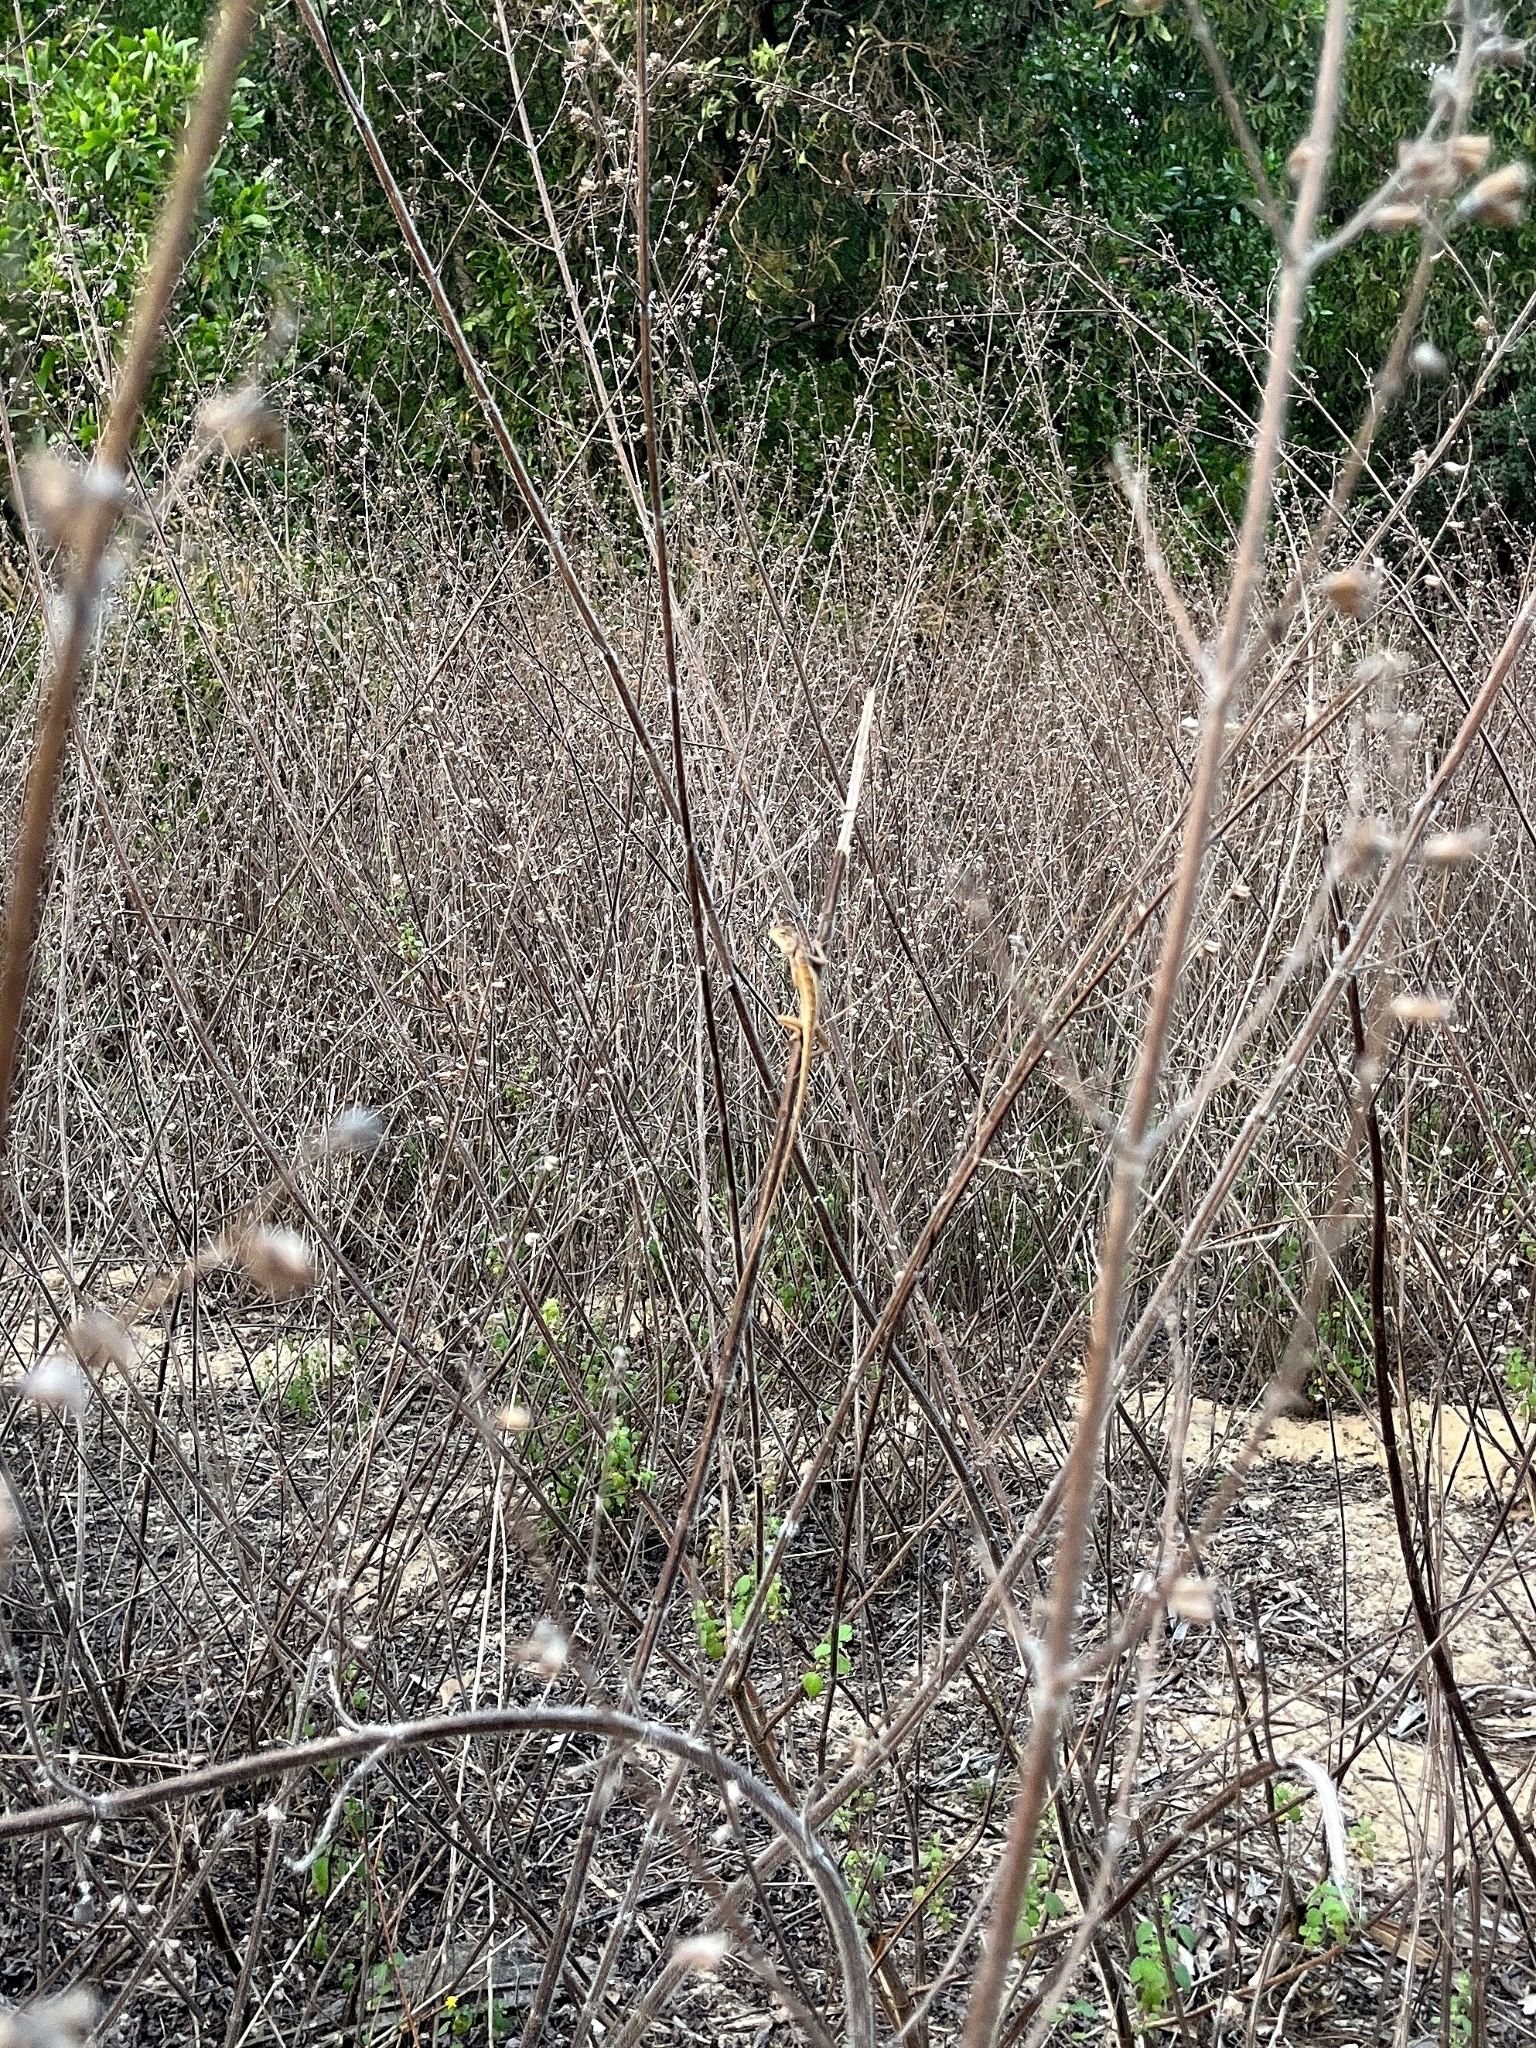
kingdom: Animalia
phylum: Chordata
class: Squamata
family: Agamidae
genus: Calotes
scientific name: Calotes versicolor
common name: Oriental garden lizard
